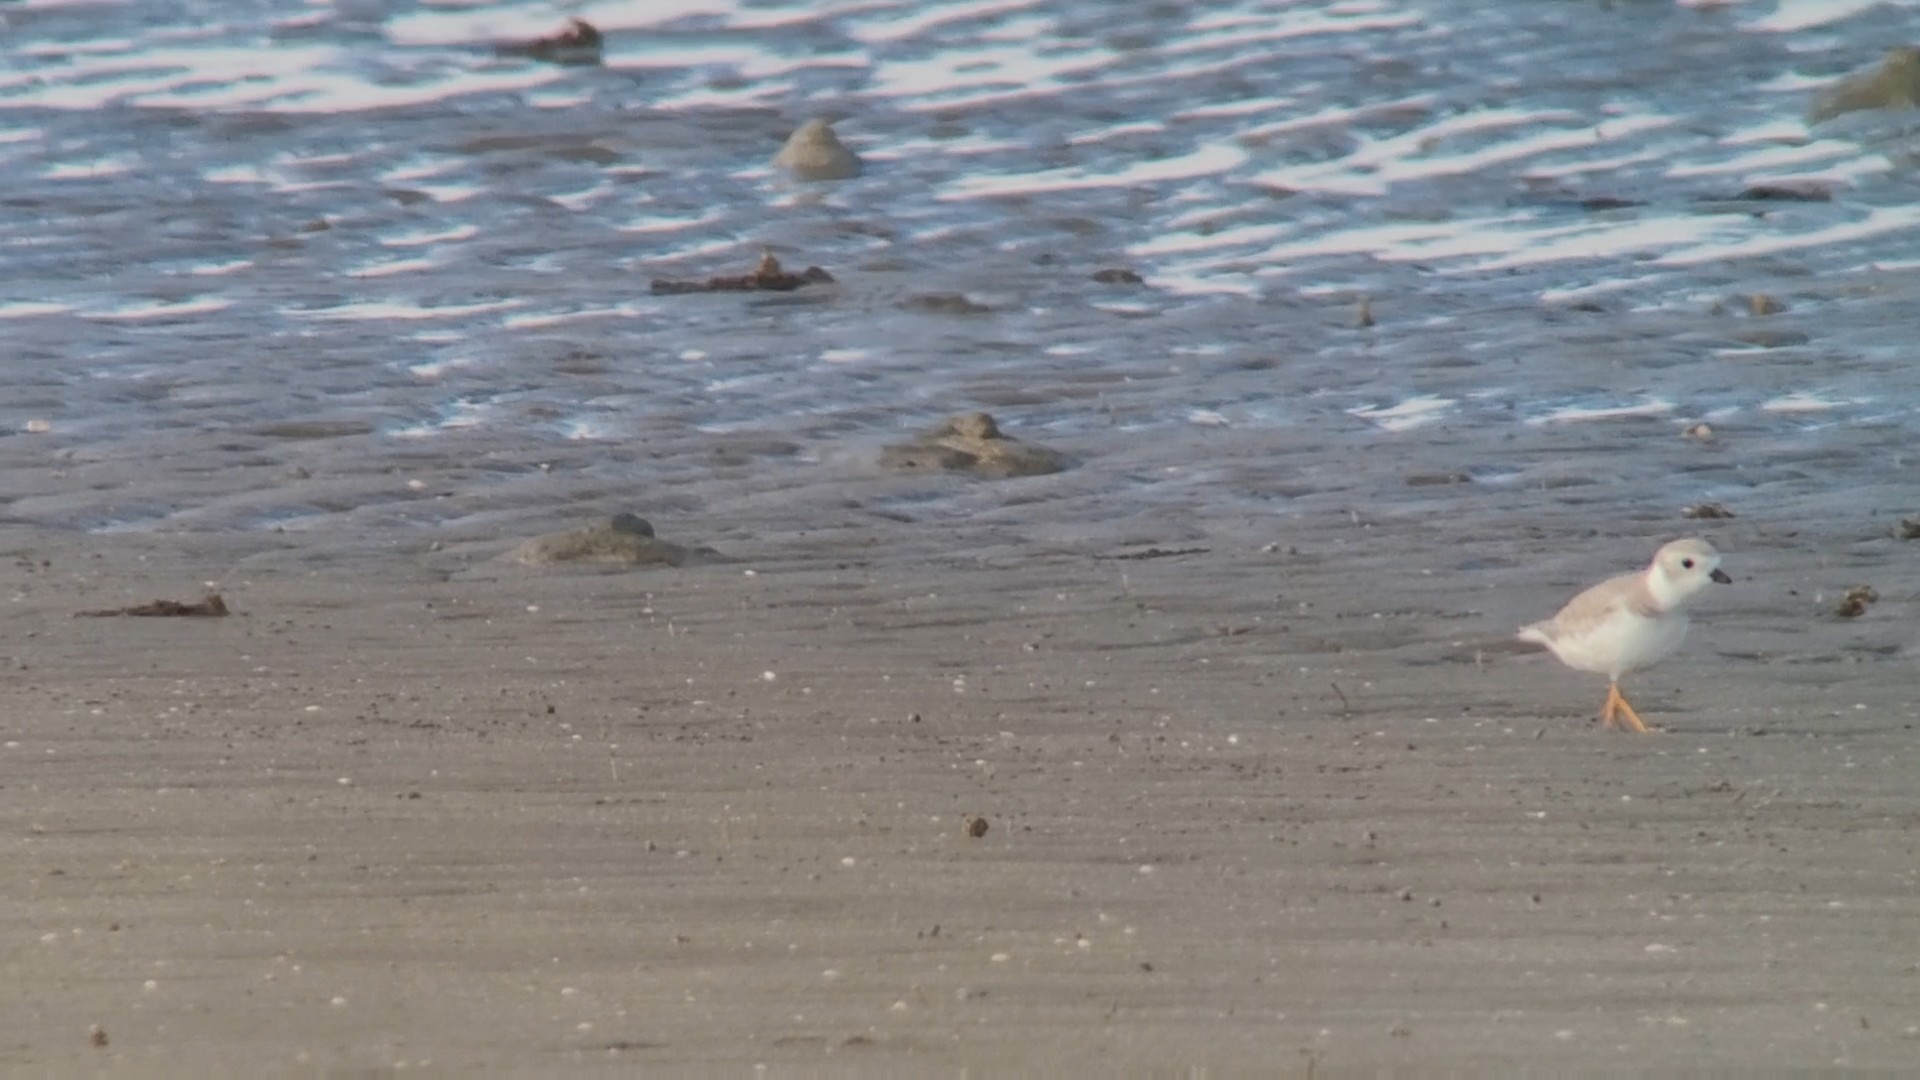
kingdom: Animalia
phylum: Chordata
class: Aves
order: Charadriiformes
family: Charadriidae
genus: Charadrius
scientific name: Charadrius melodus
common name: Piping plover
